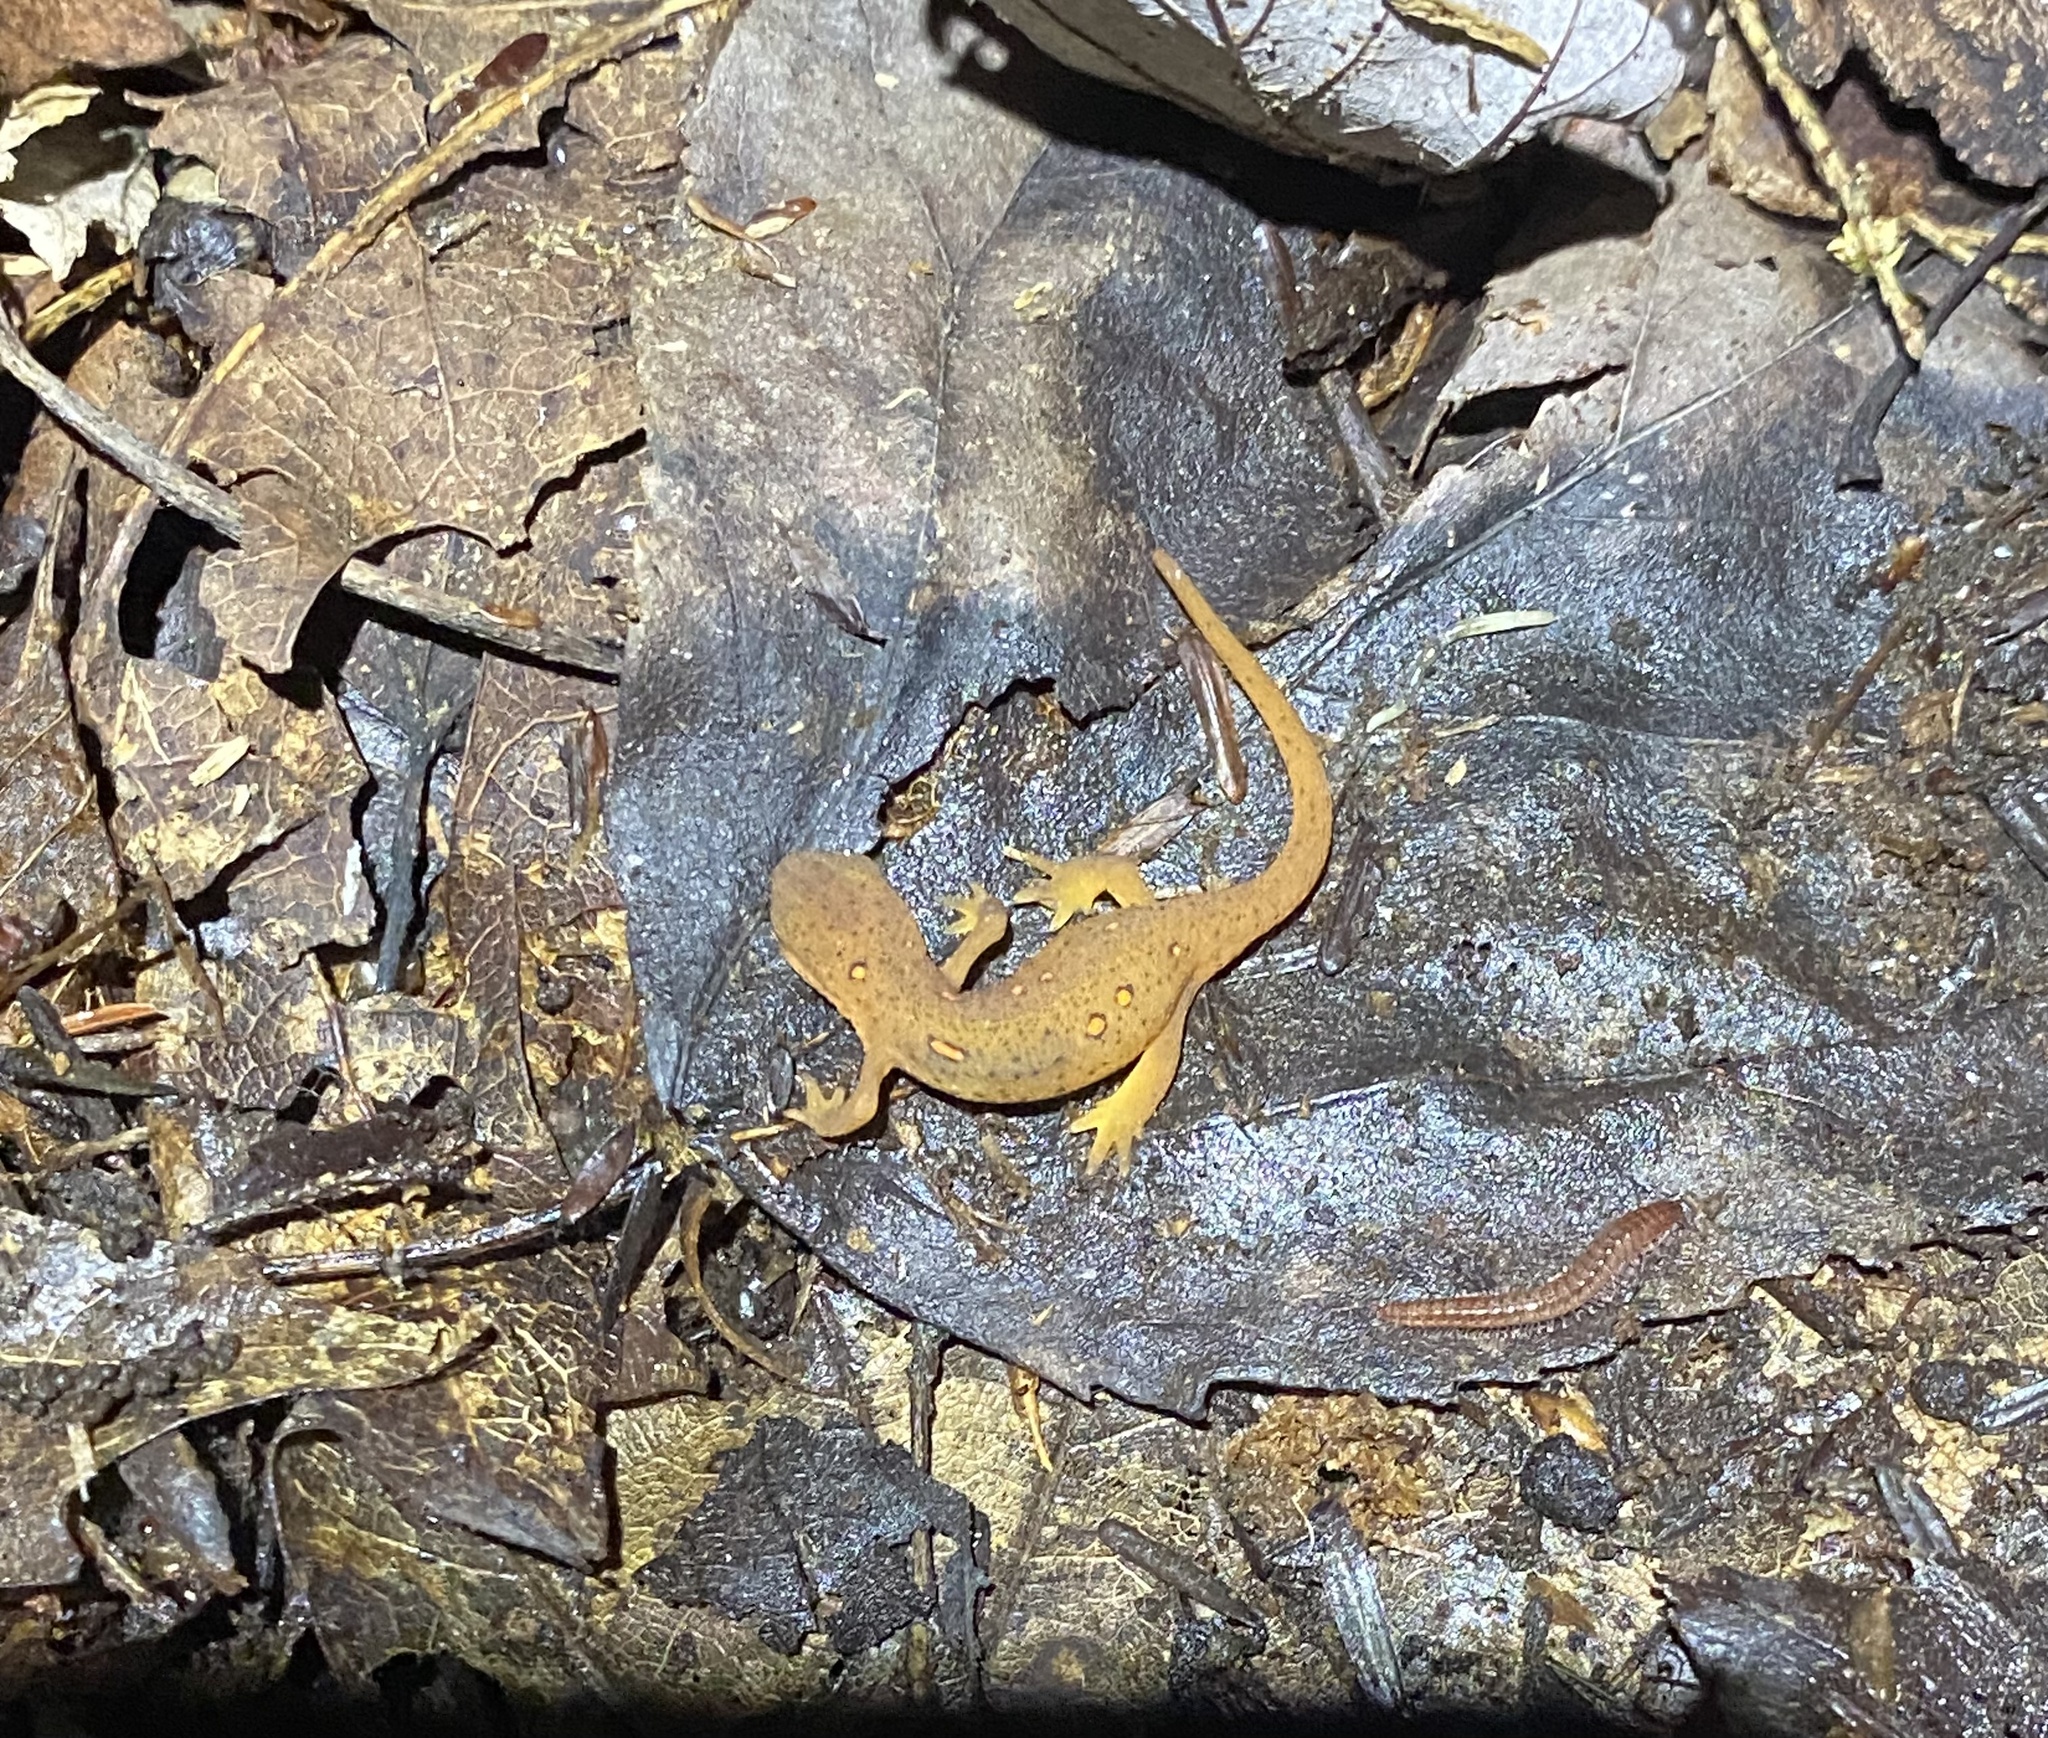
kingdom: Animalia
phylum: Chordata
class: Amphibia
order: Caudata
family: Salamandridae
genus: Notophthalmus
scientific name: Notophthalmus viridescens
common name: Eastern newt
